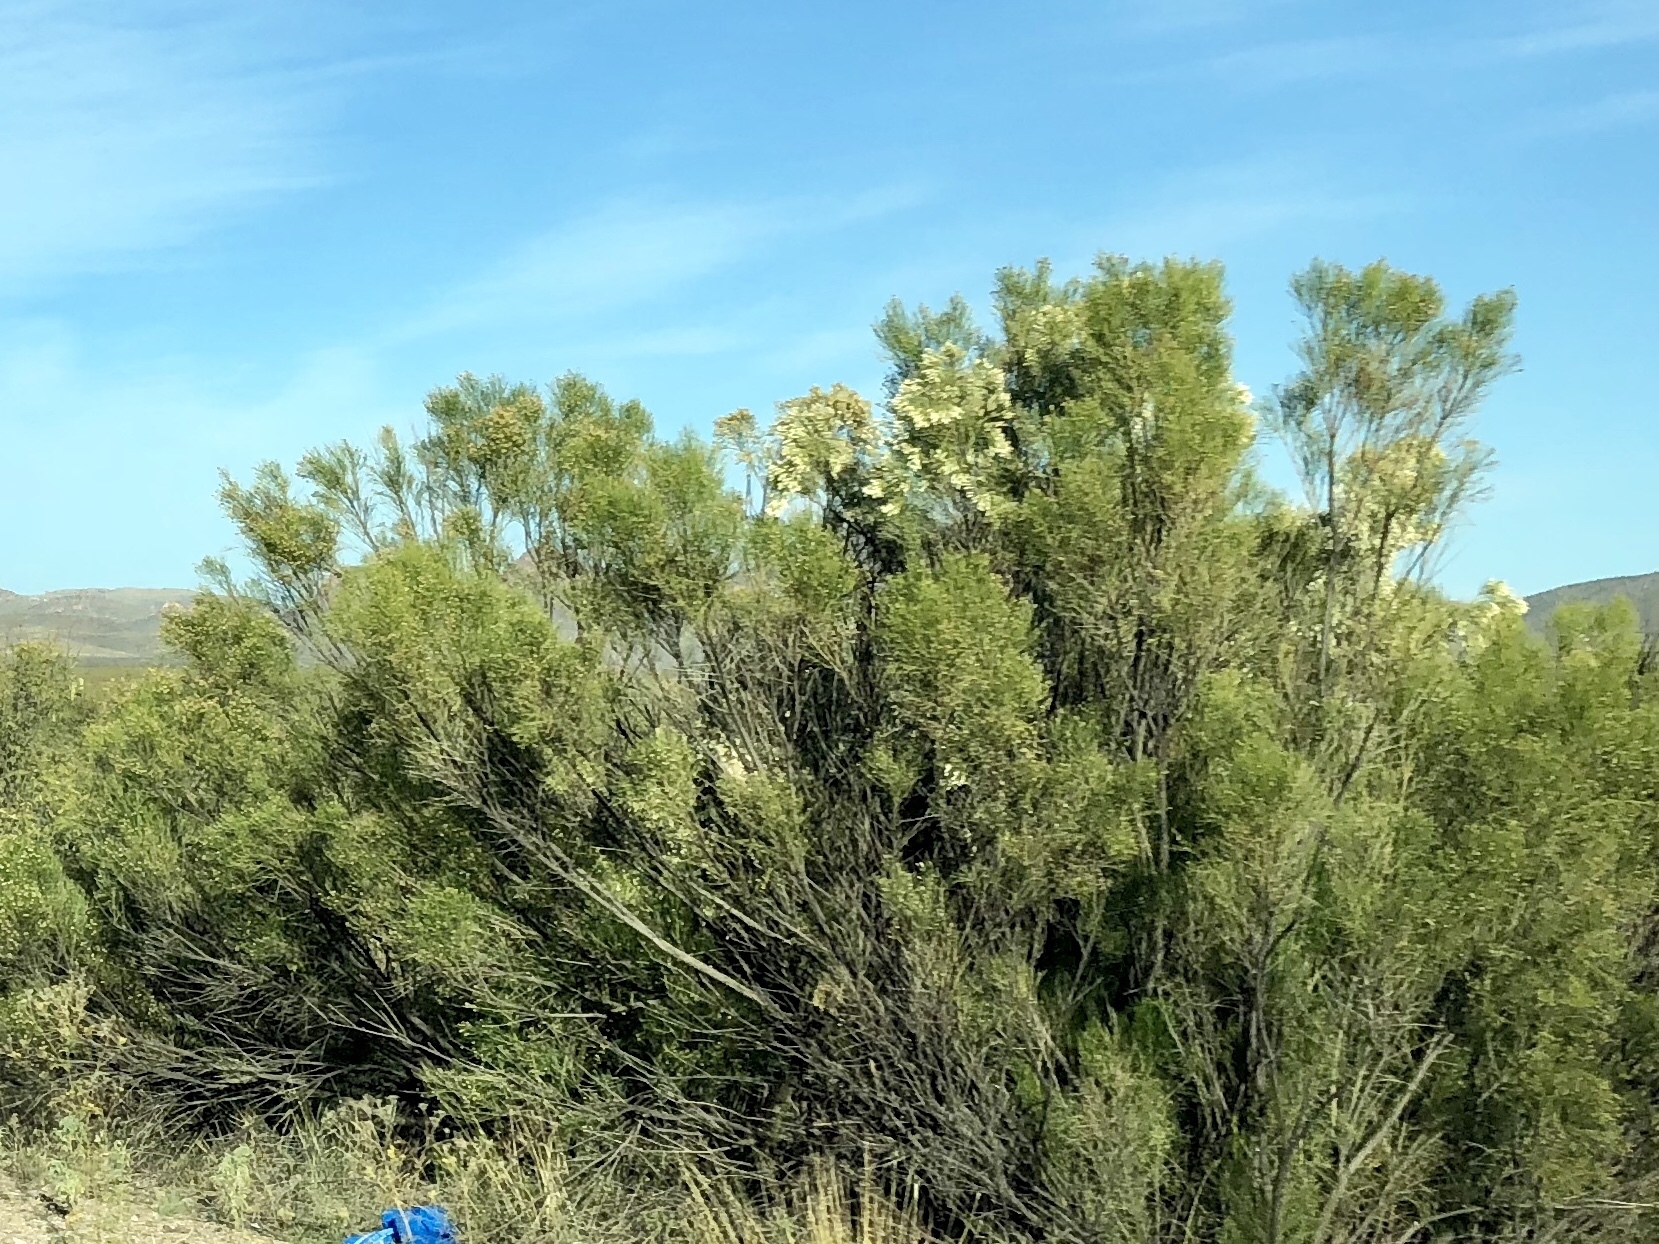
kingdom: Plantae
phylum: Tracheophyta
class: Magnoliopsida
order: Asterales
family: Asteraceae
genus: Baccharis
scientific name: Baccharis sarothroides
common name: Desert-broom
